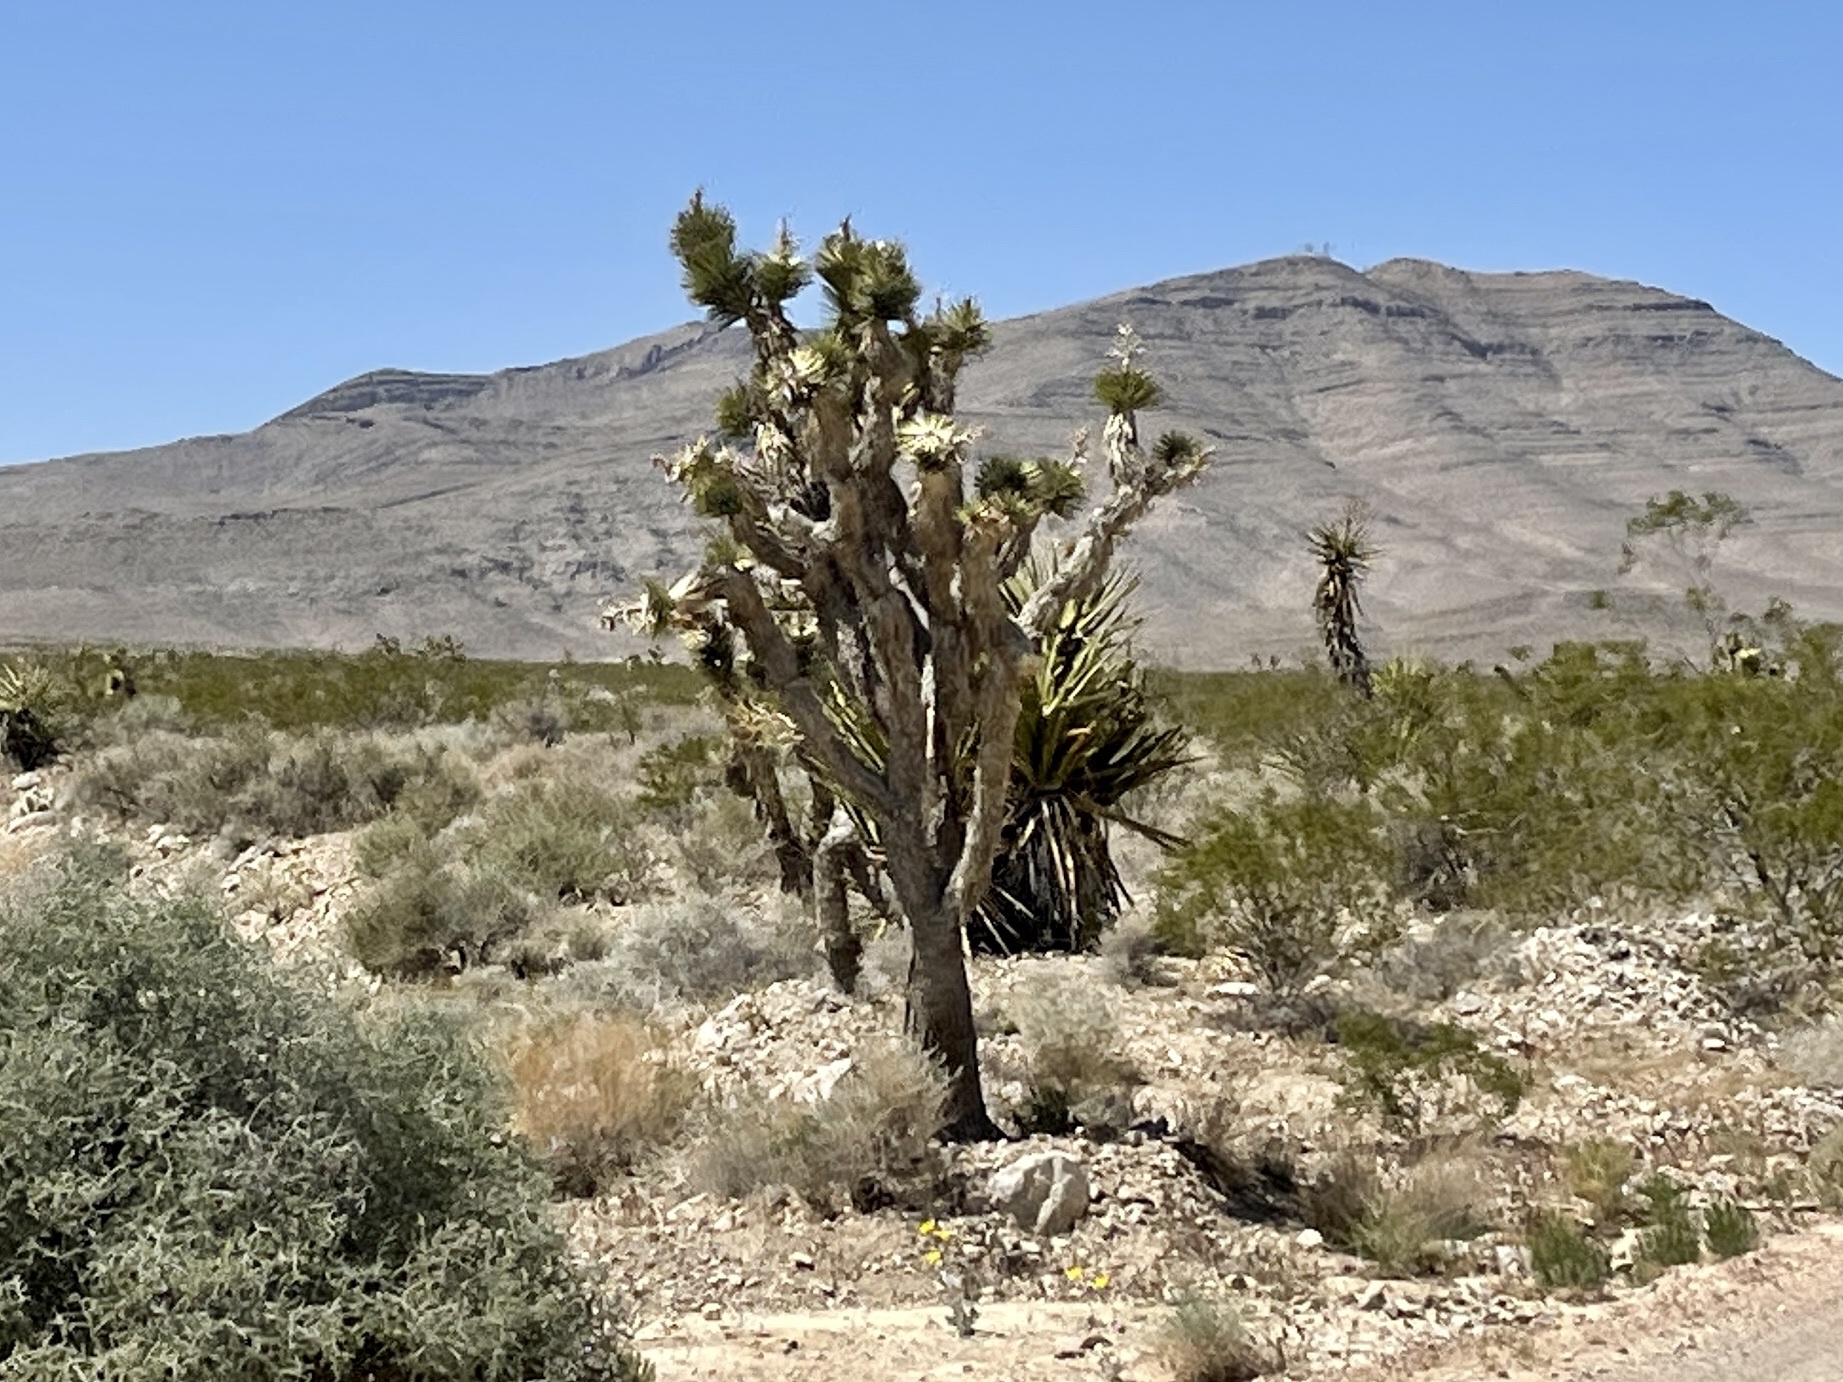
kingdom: Plantae
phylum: Tracheophyta
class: Liliopsida
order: Asparagales
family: Asparagaceae
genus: Yucca
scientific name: Yucca brevifolia
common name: Joshua tree
